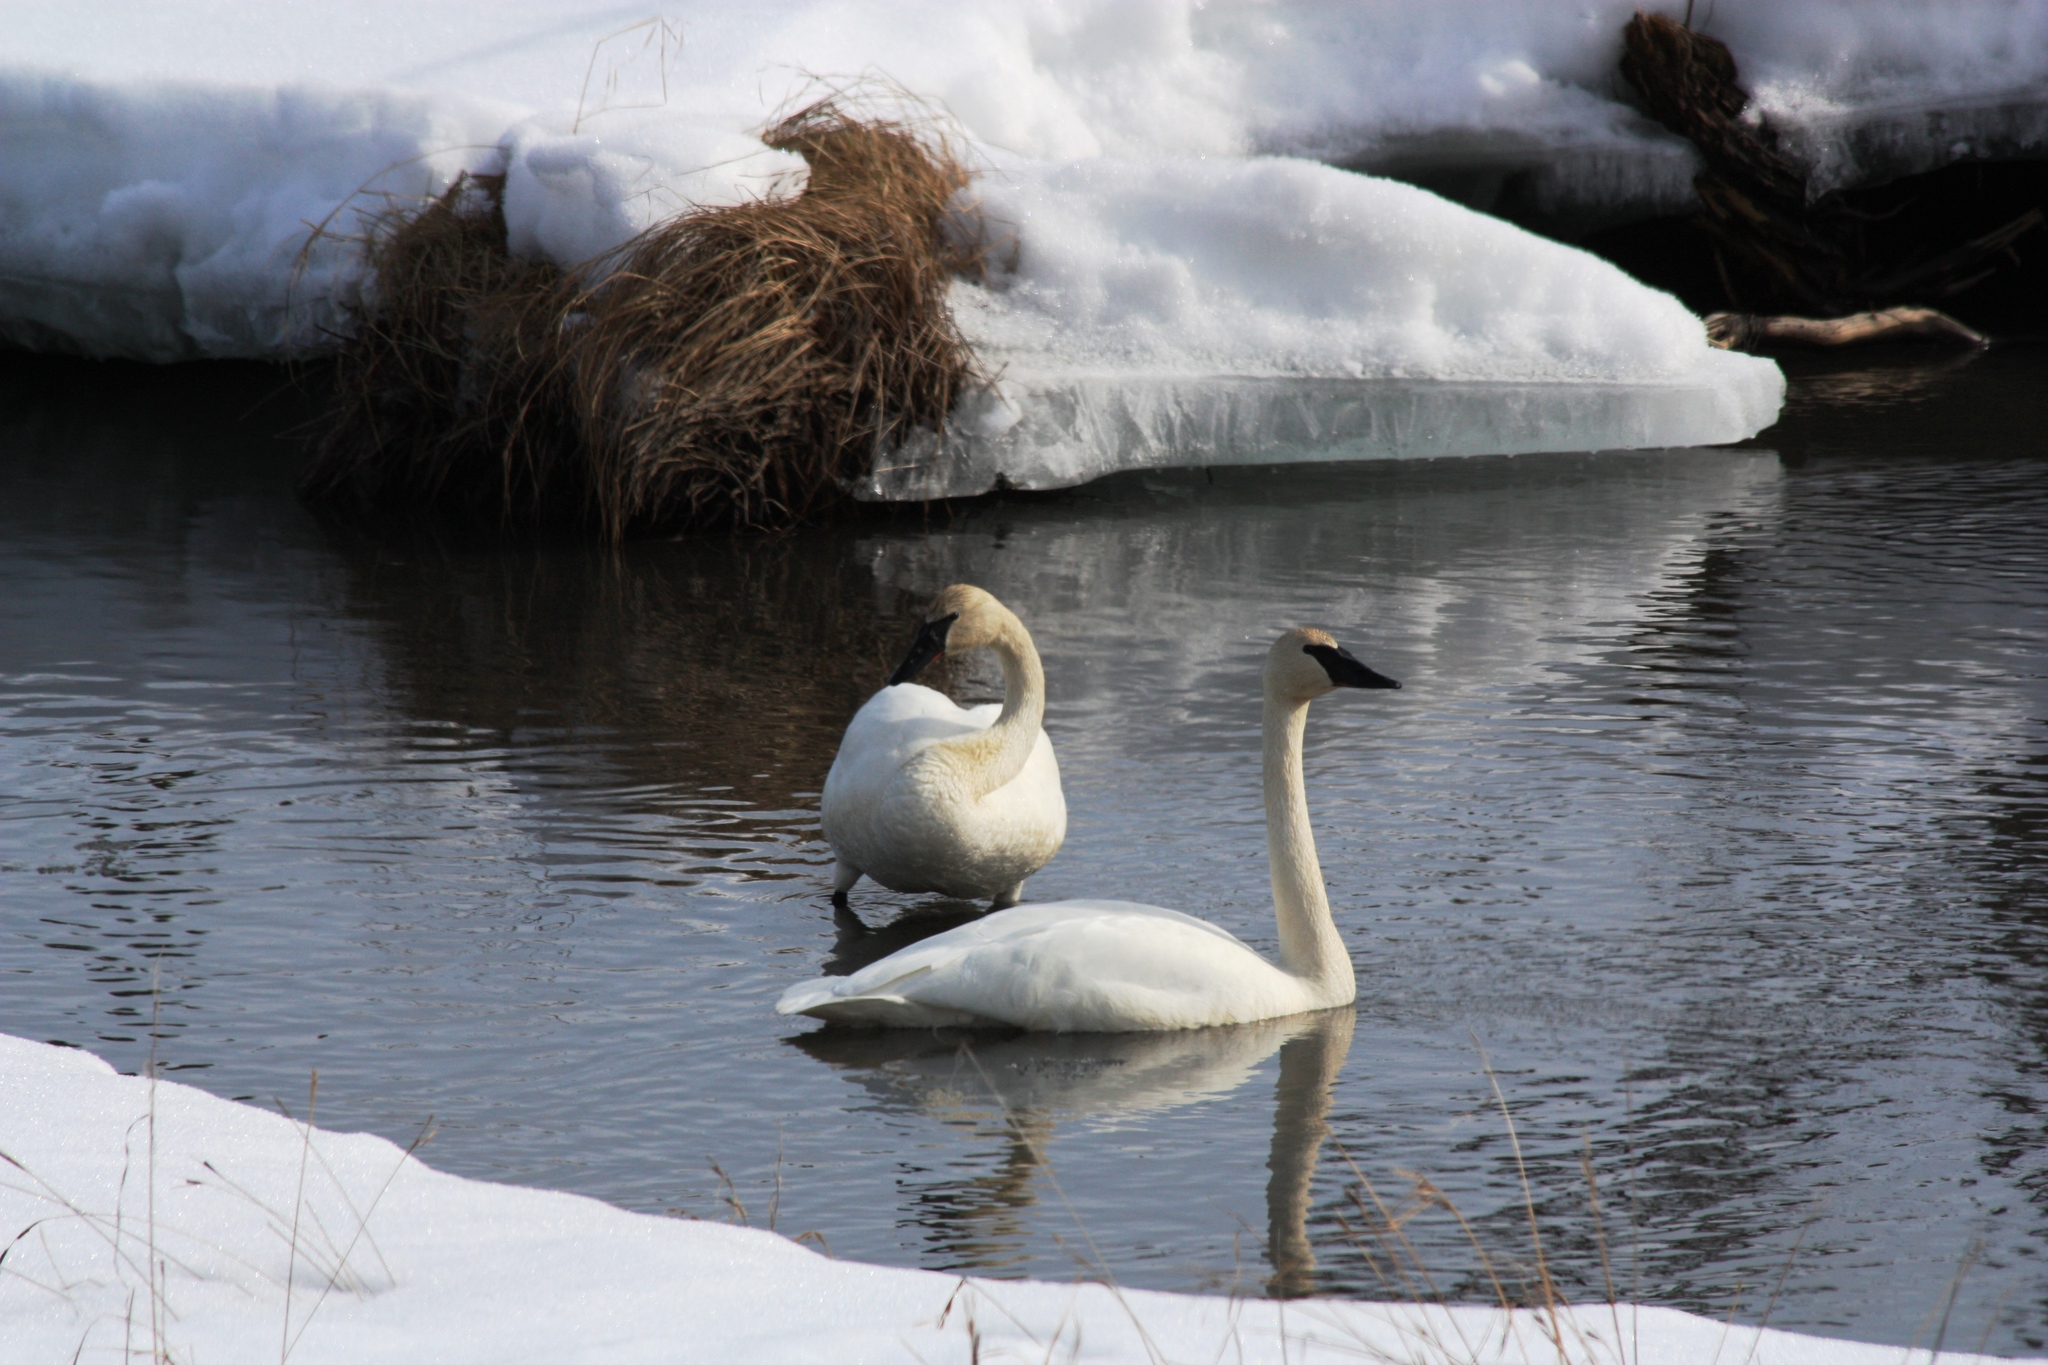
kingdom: Animalia
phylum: Chordata
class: Aves
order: Anseriformes
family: Anatidae
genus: Cygnus
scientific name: Cygnus buccinator
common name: Trumpeter swan
